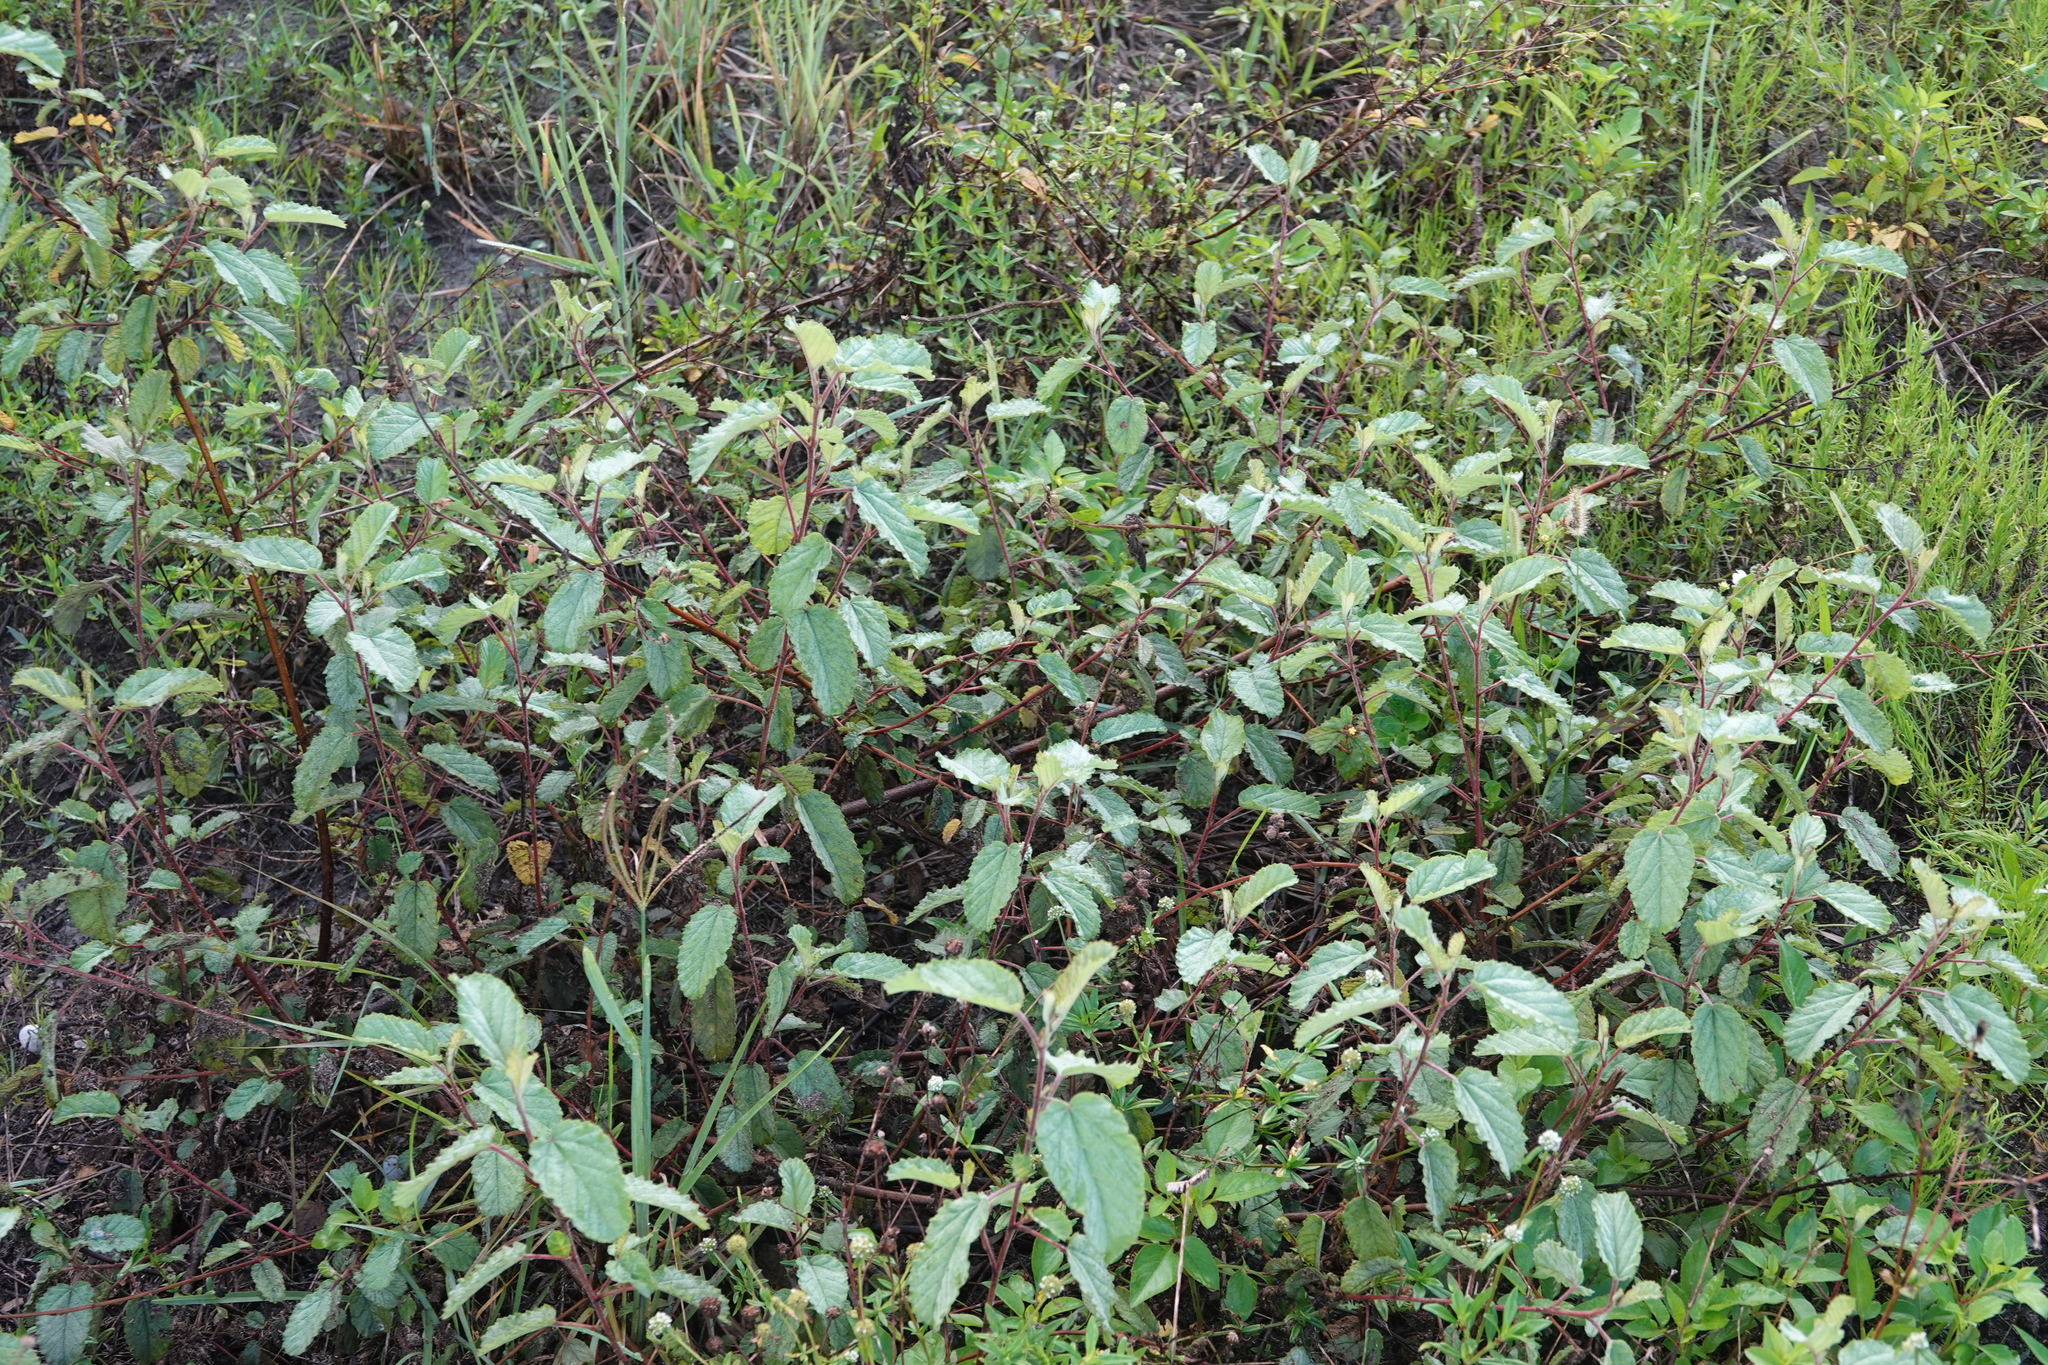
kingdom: Plantae
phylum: Tracheophyta
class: Magnoliopsida
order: Malvales
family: Malvaceae
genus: Waltheria
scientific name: Waltheria indica
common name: Leather-coat
